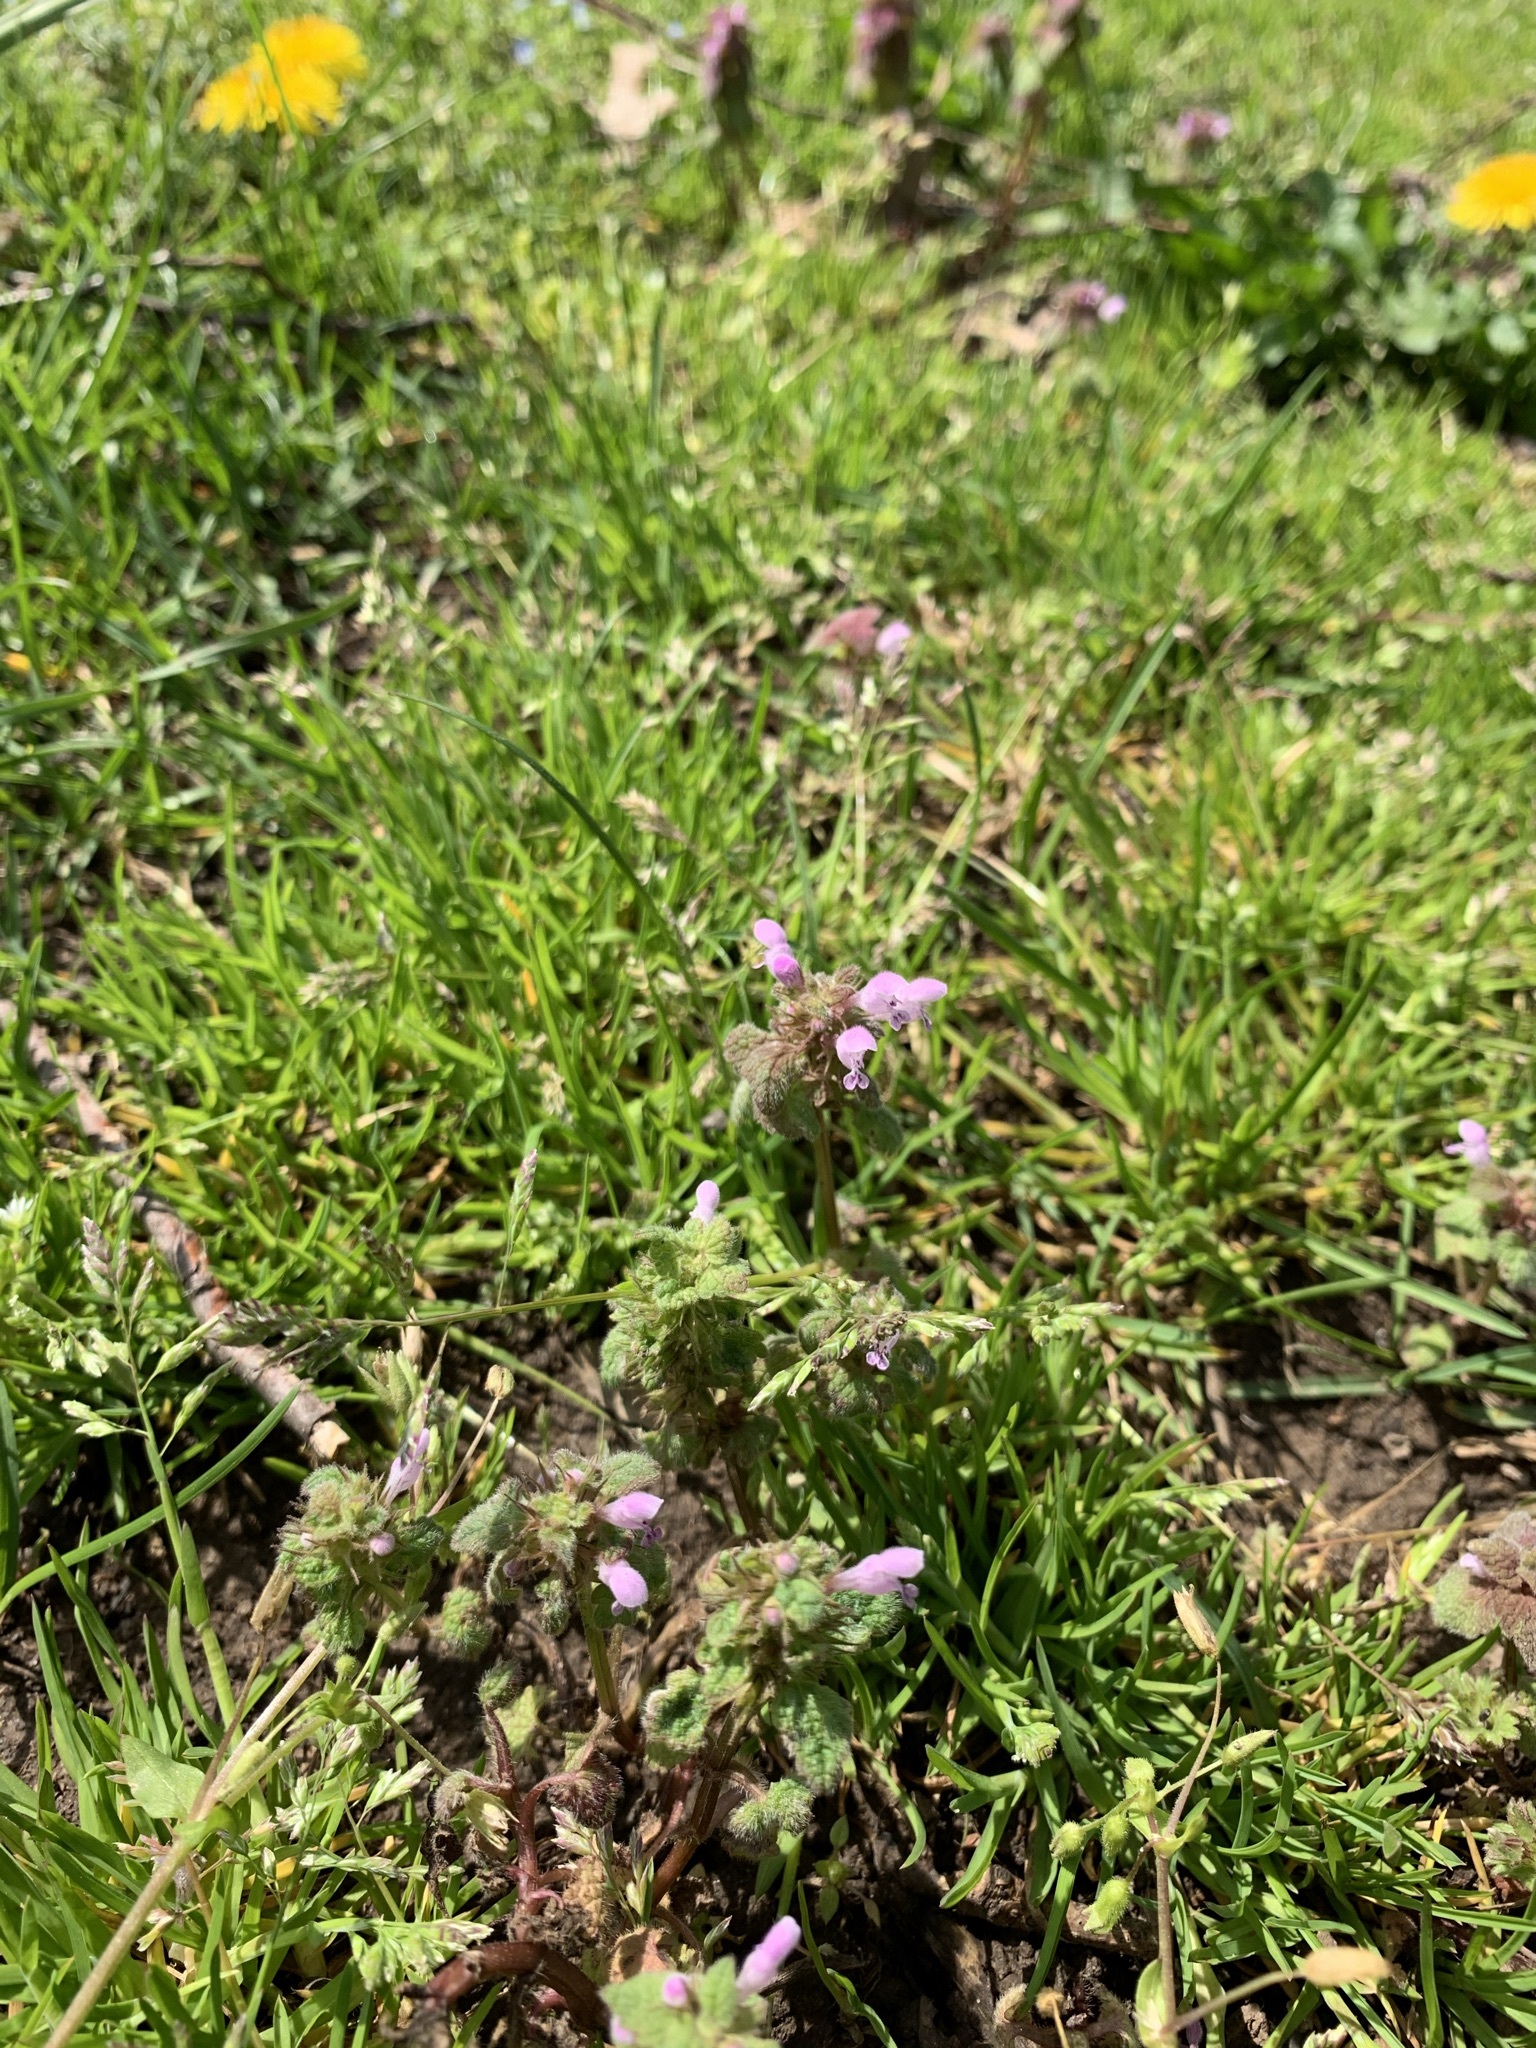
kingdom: Plantae
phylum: Tracheophyta
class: Magnoliopsida
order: Lamiales
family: Lamiaceae
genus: Lamium
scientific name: Lamium purpureum
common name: Red dead-nettle
